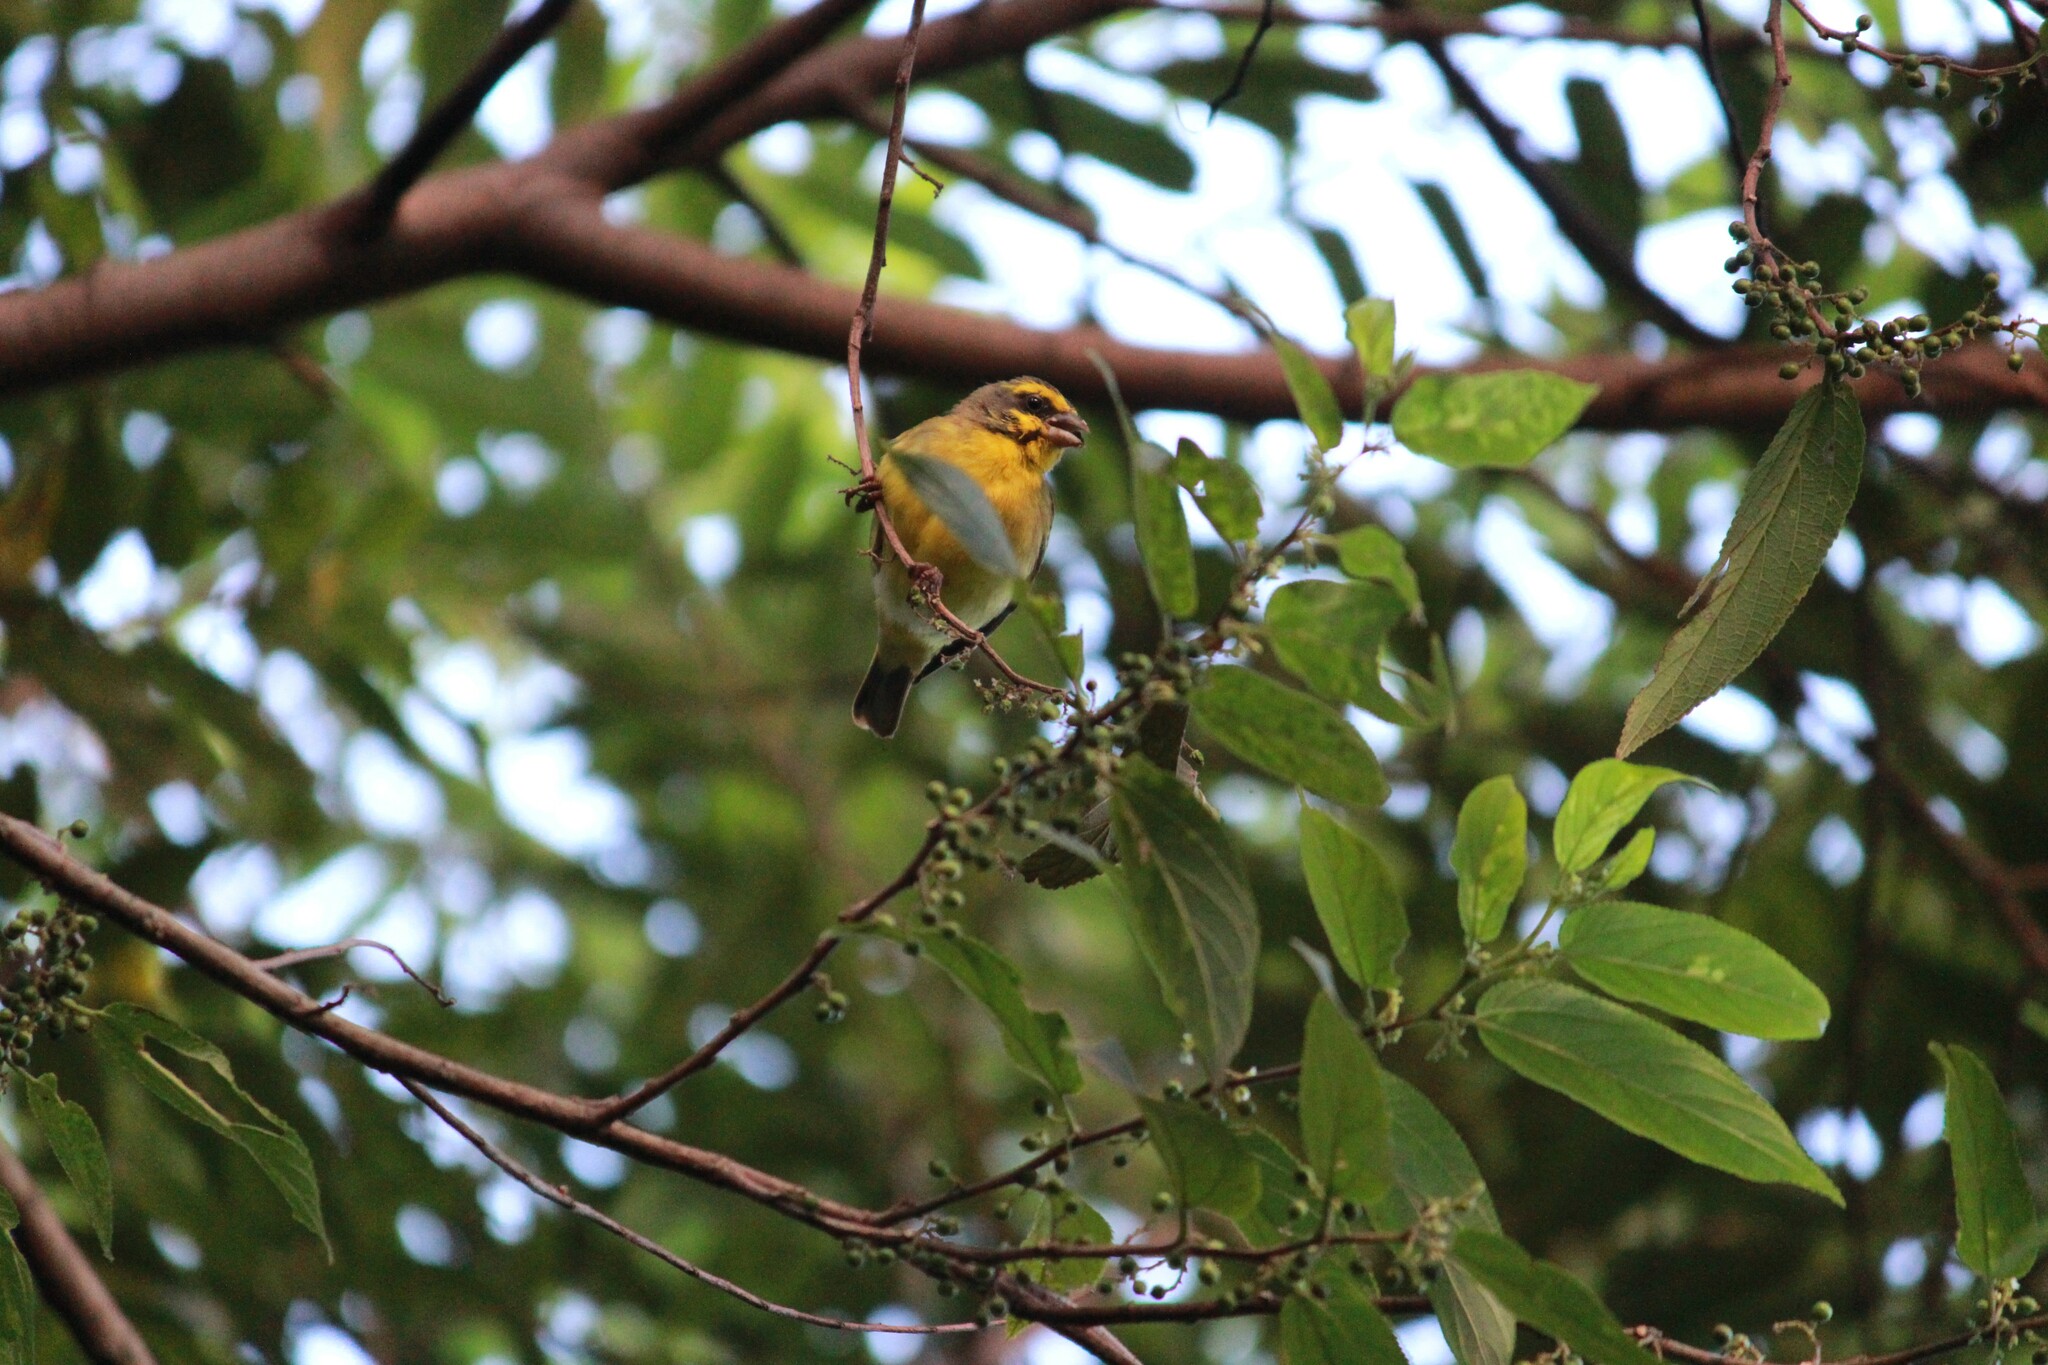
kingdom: Animalia
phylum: Chordata
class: Aves
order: Passeriformes
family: Fringillidae
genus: Crithagra
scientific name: Crithagra mozambica
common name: Yellow-fronted canary
